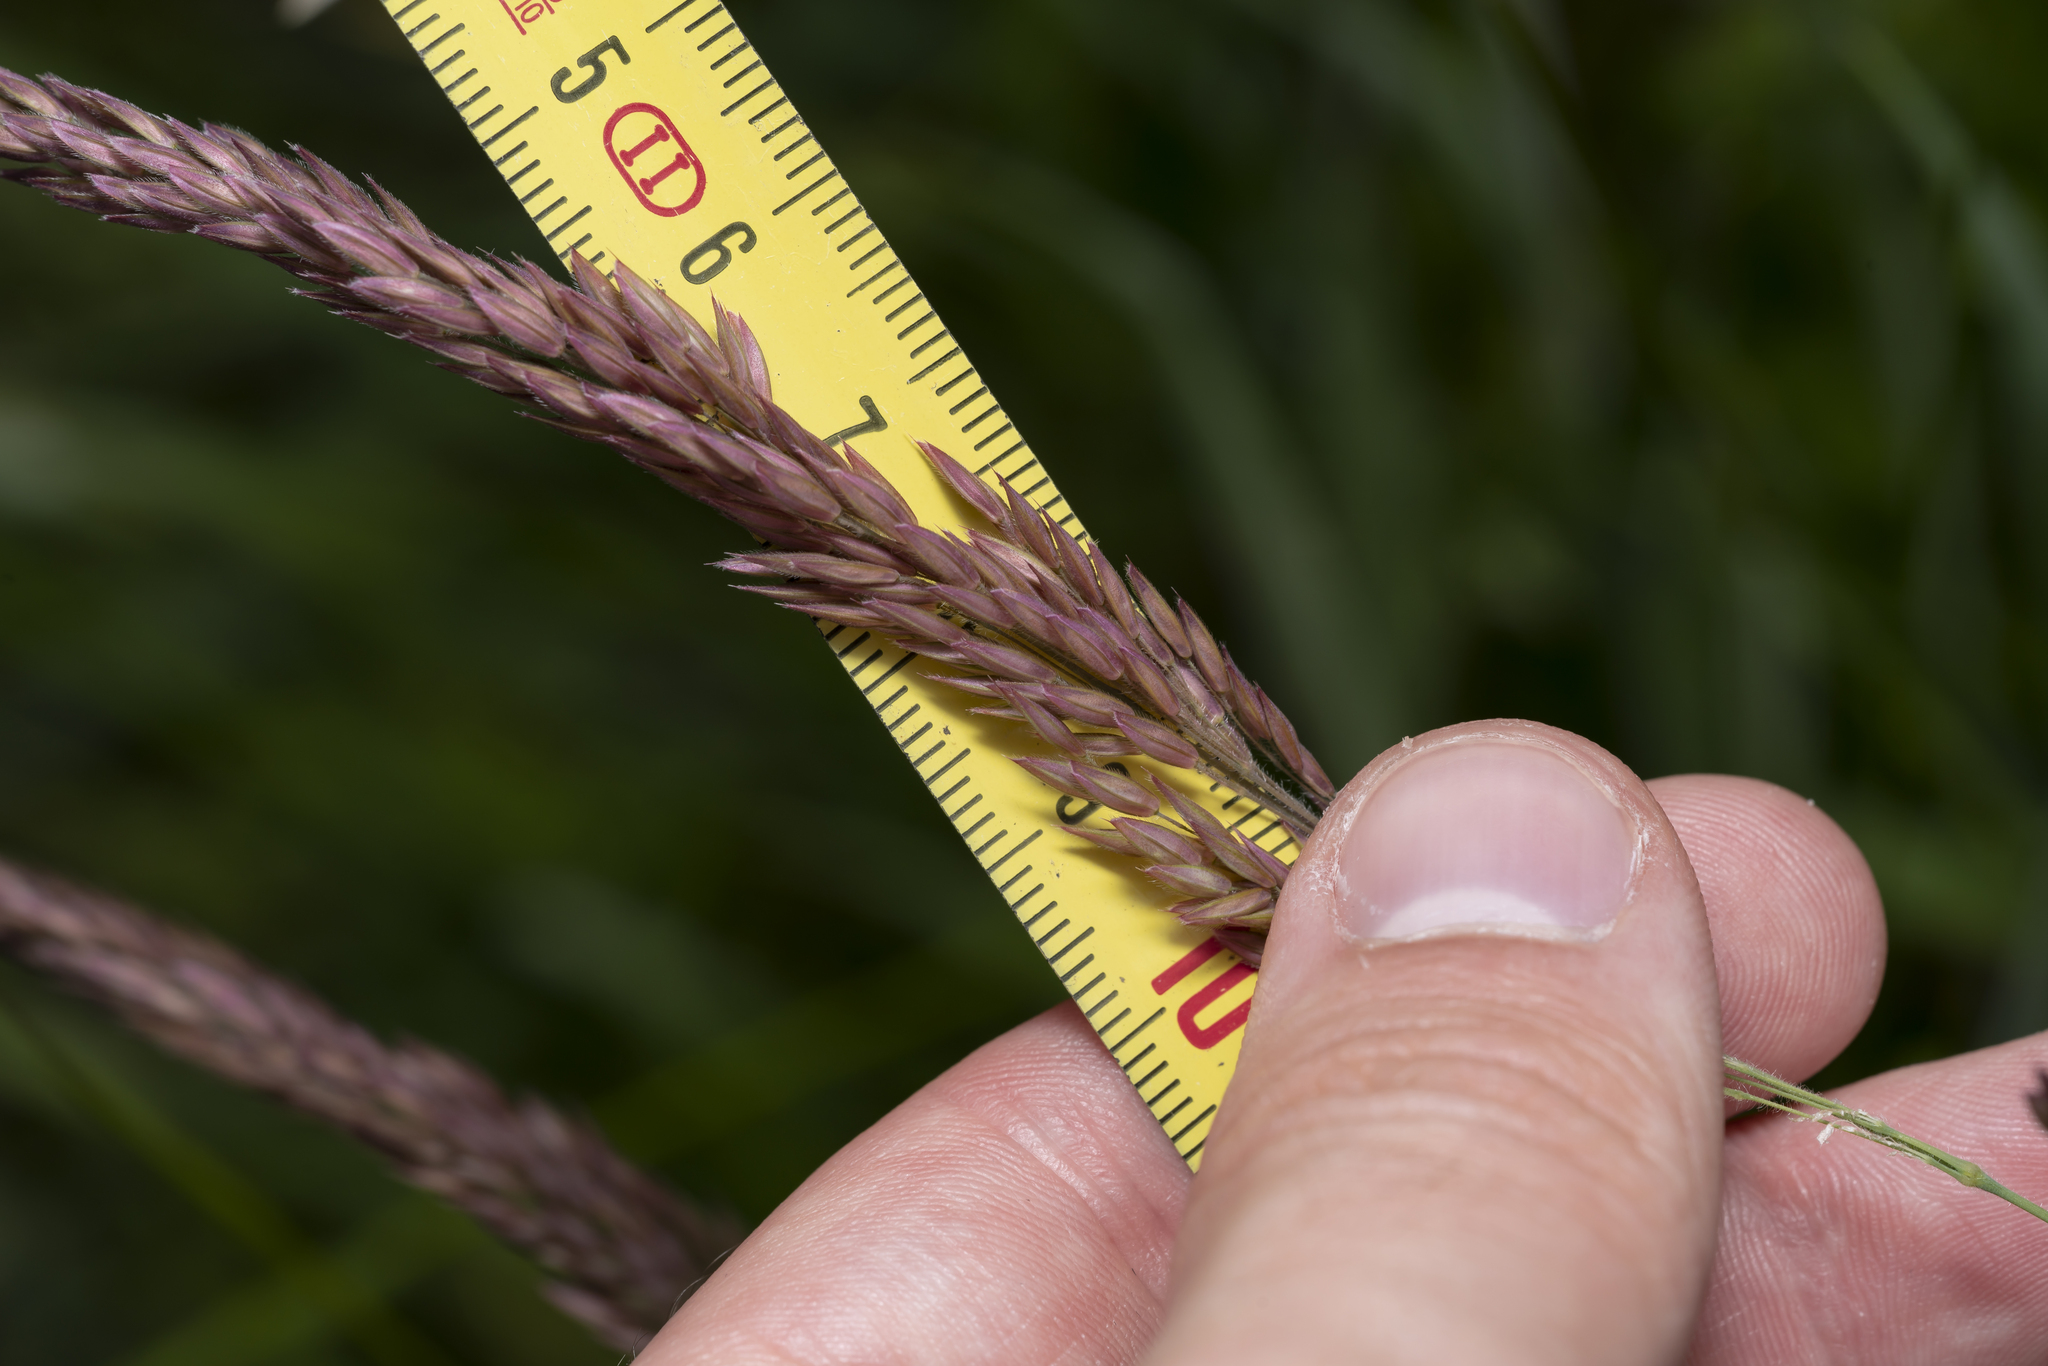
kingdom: Plantae
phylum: Tracheophyta
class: Liliopsida
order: Poales
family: Poaceae
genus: Holcus
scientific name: Holcus lanatus
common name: Yorkshire-fog
